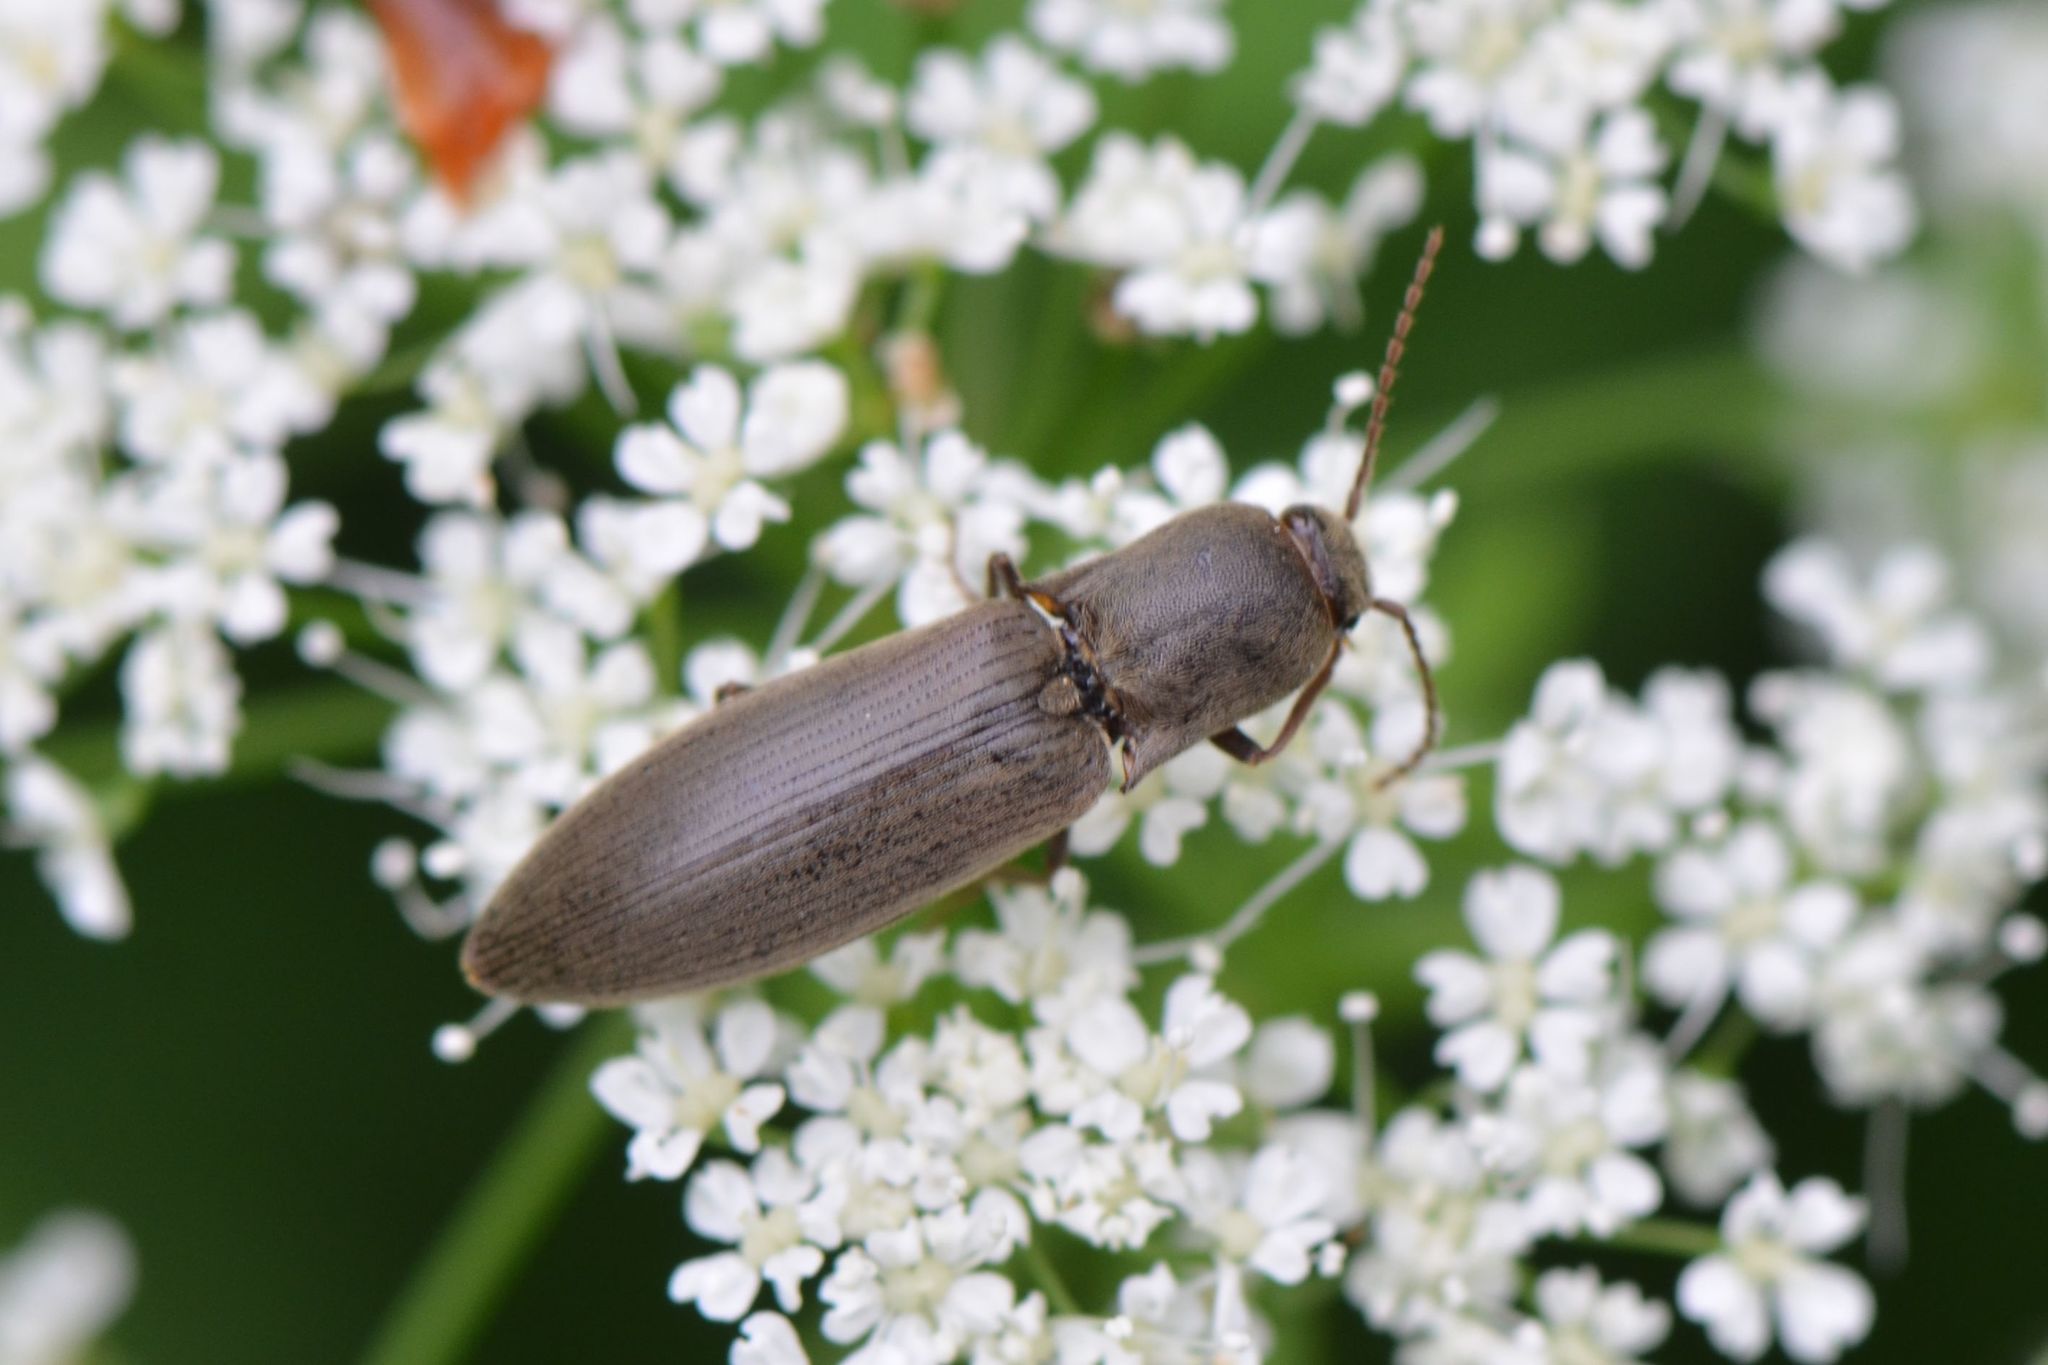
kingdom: Animalia
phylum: Arthropoda
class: Insecta
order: Coleoptera
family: Elateridae
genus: Agriotes
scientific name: Agriotes pilosellus
